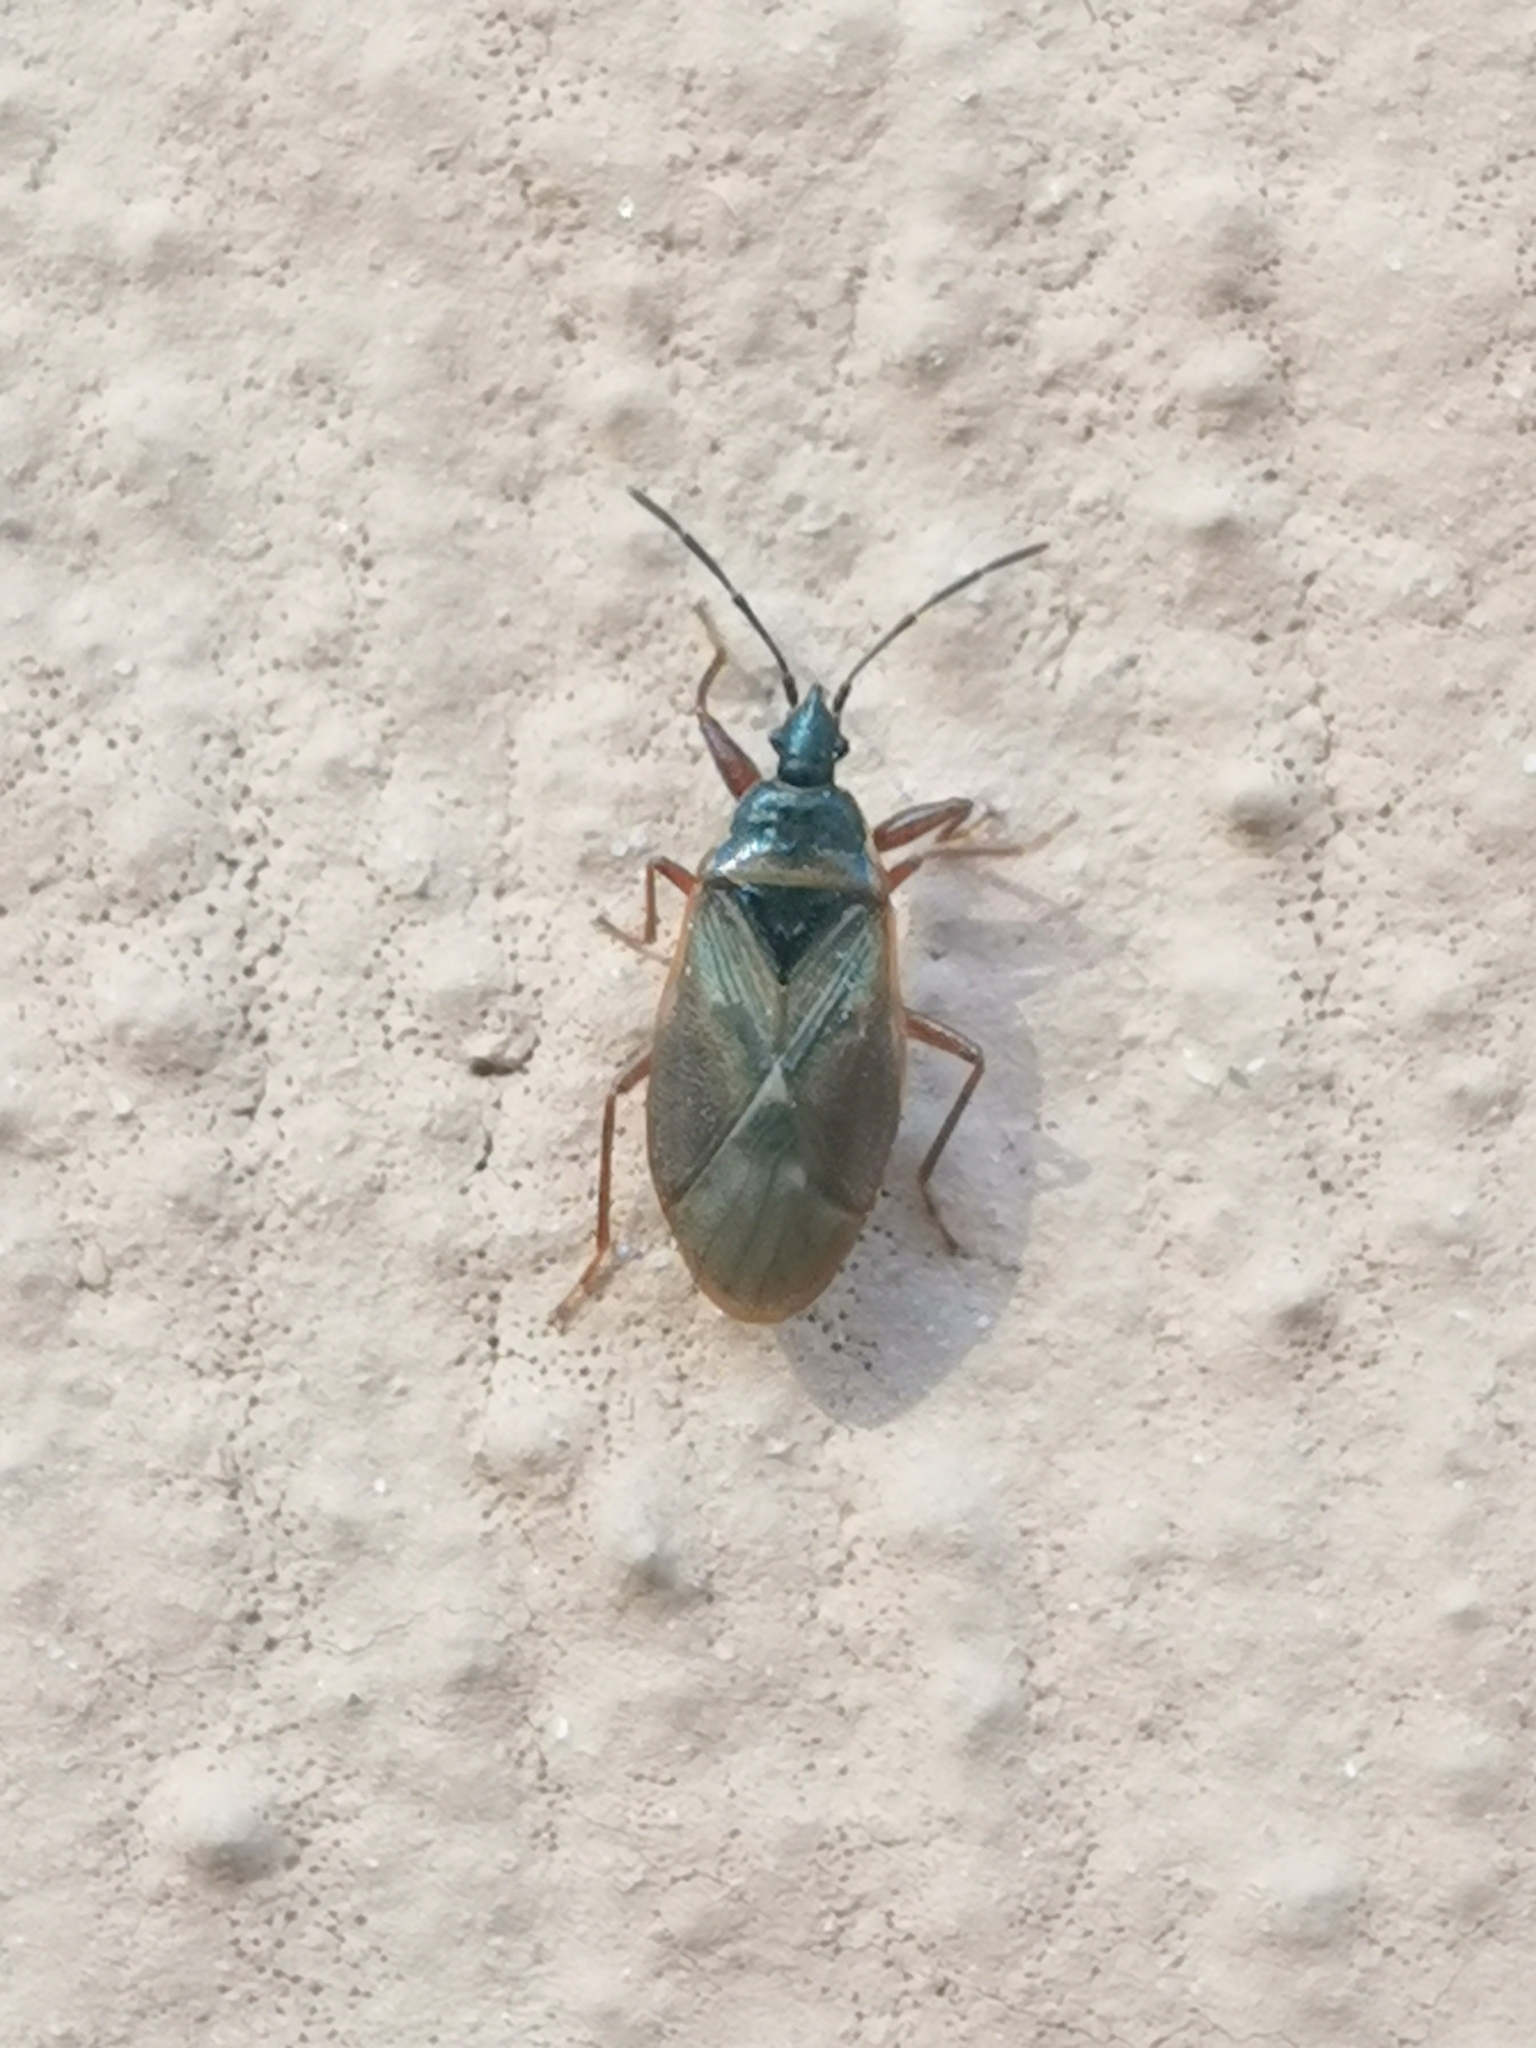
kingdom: Animalia
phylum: Arthropoda
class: Insecta
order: Hemiptera
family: Rhyparochromidae
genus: Gastrodes
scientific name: Gastrodes abietum
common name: Spruce cone bug
